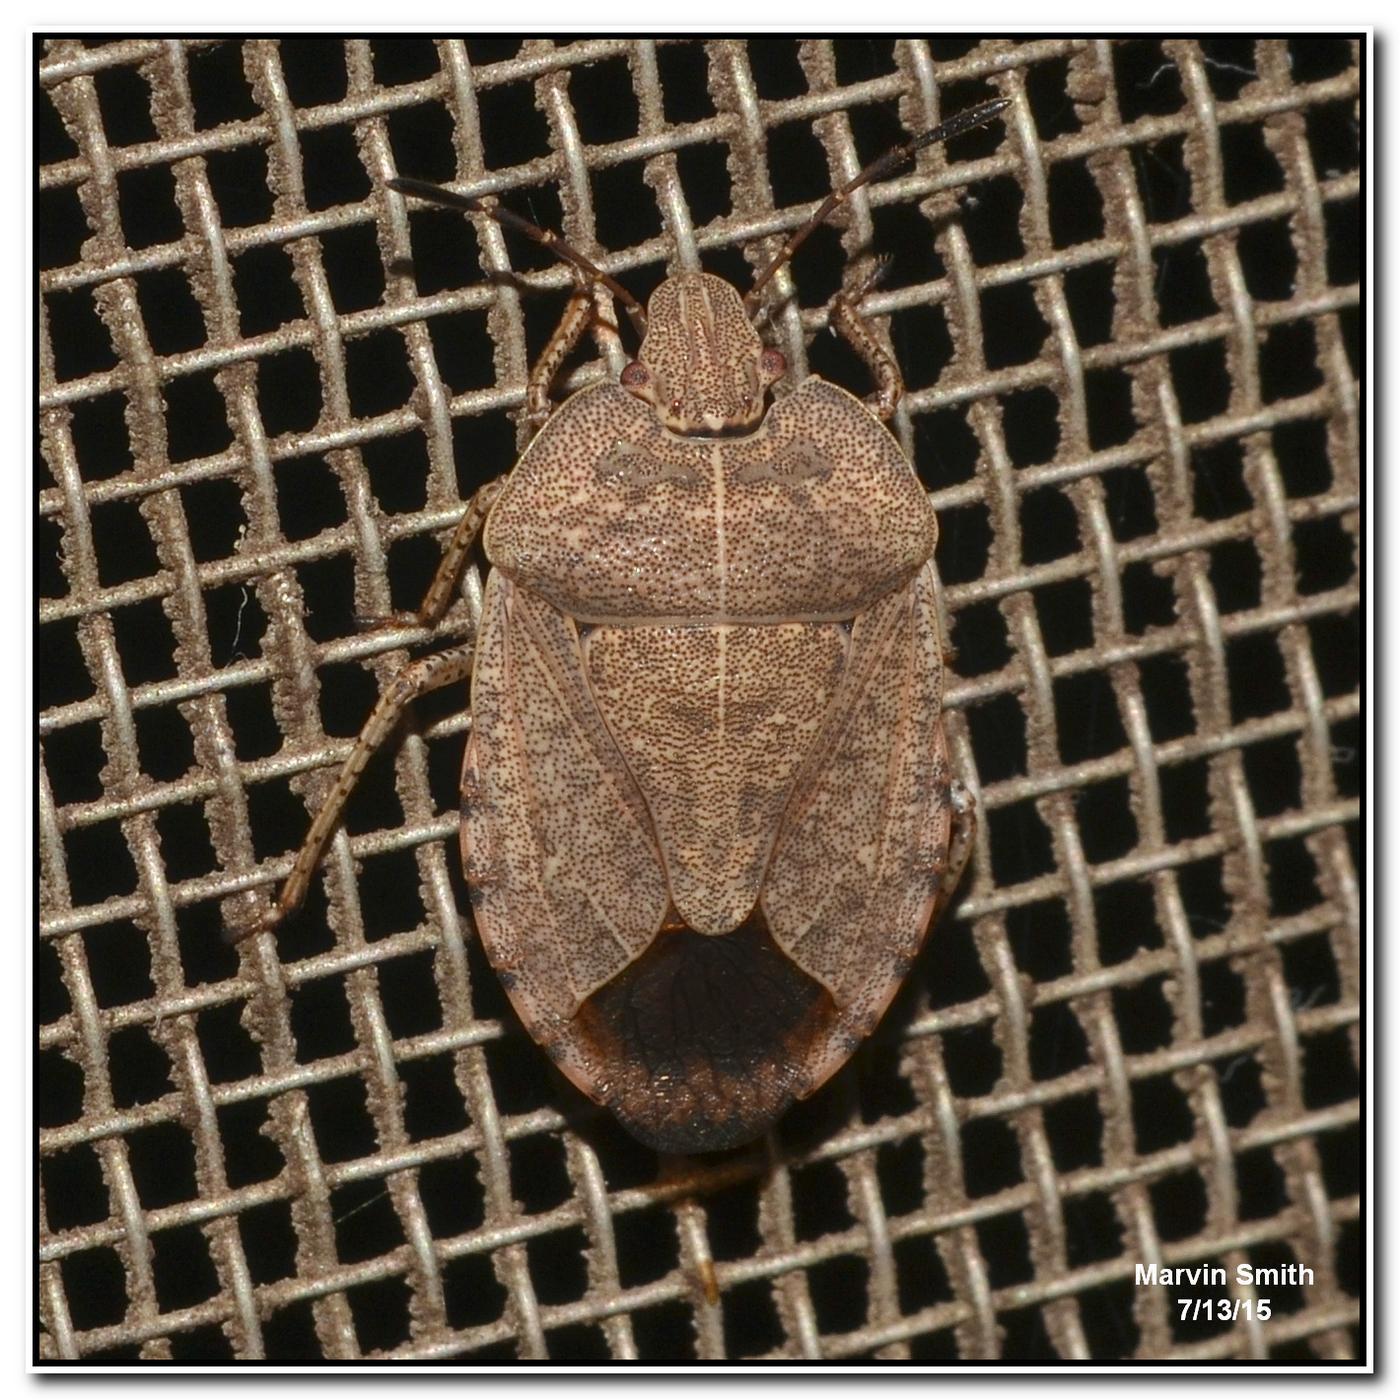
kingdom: Animalia
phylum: Arthropoda
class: Insecta
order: Hemiptera
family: Pentatomidae
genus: Menecles
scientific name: Menecles insertus
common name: Elf shoe stink bug
